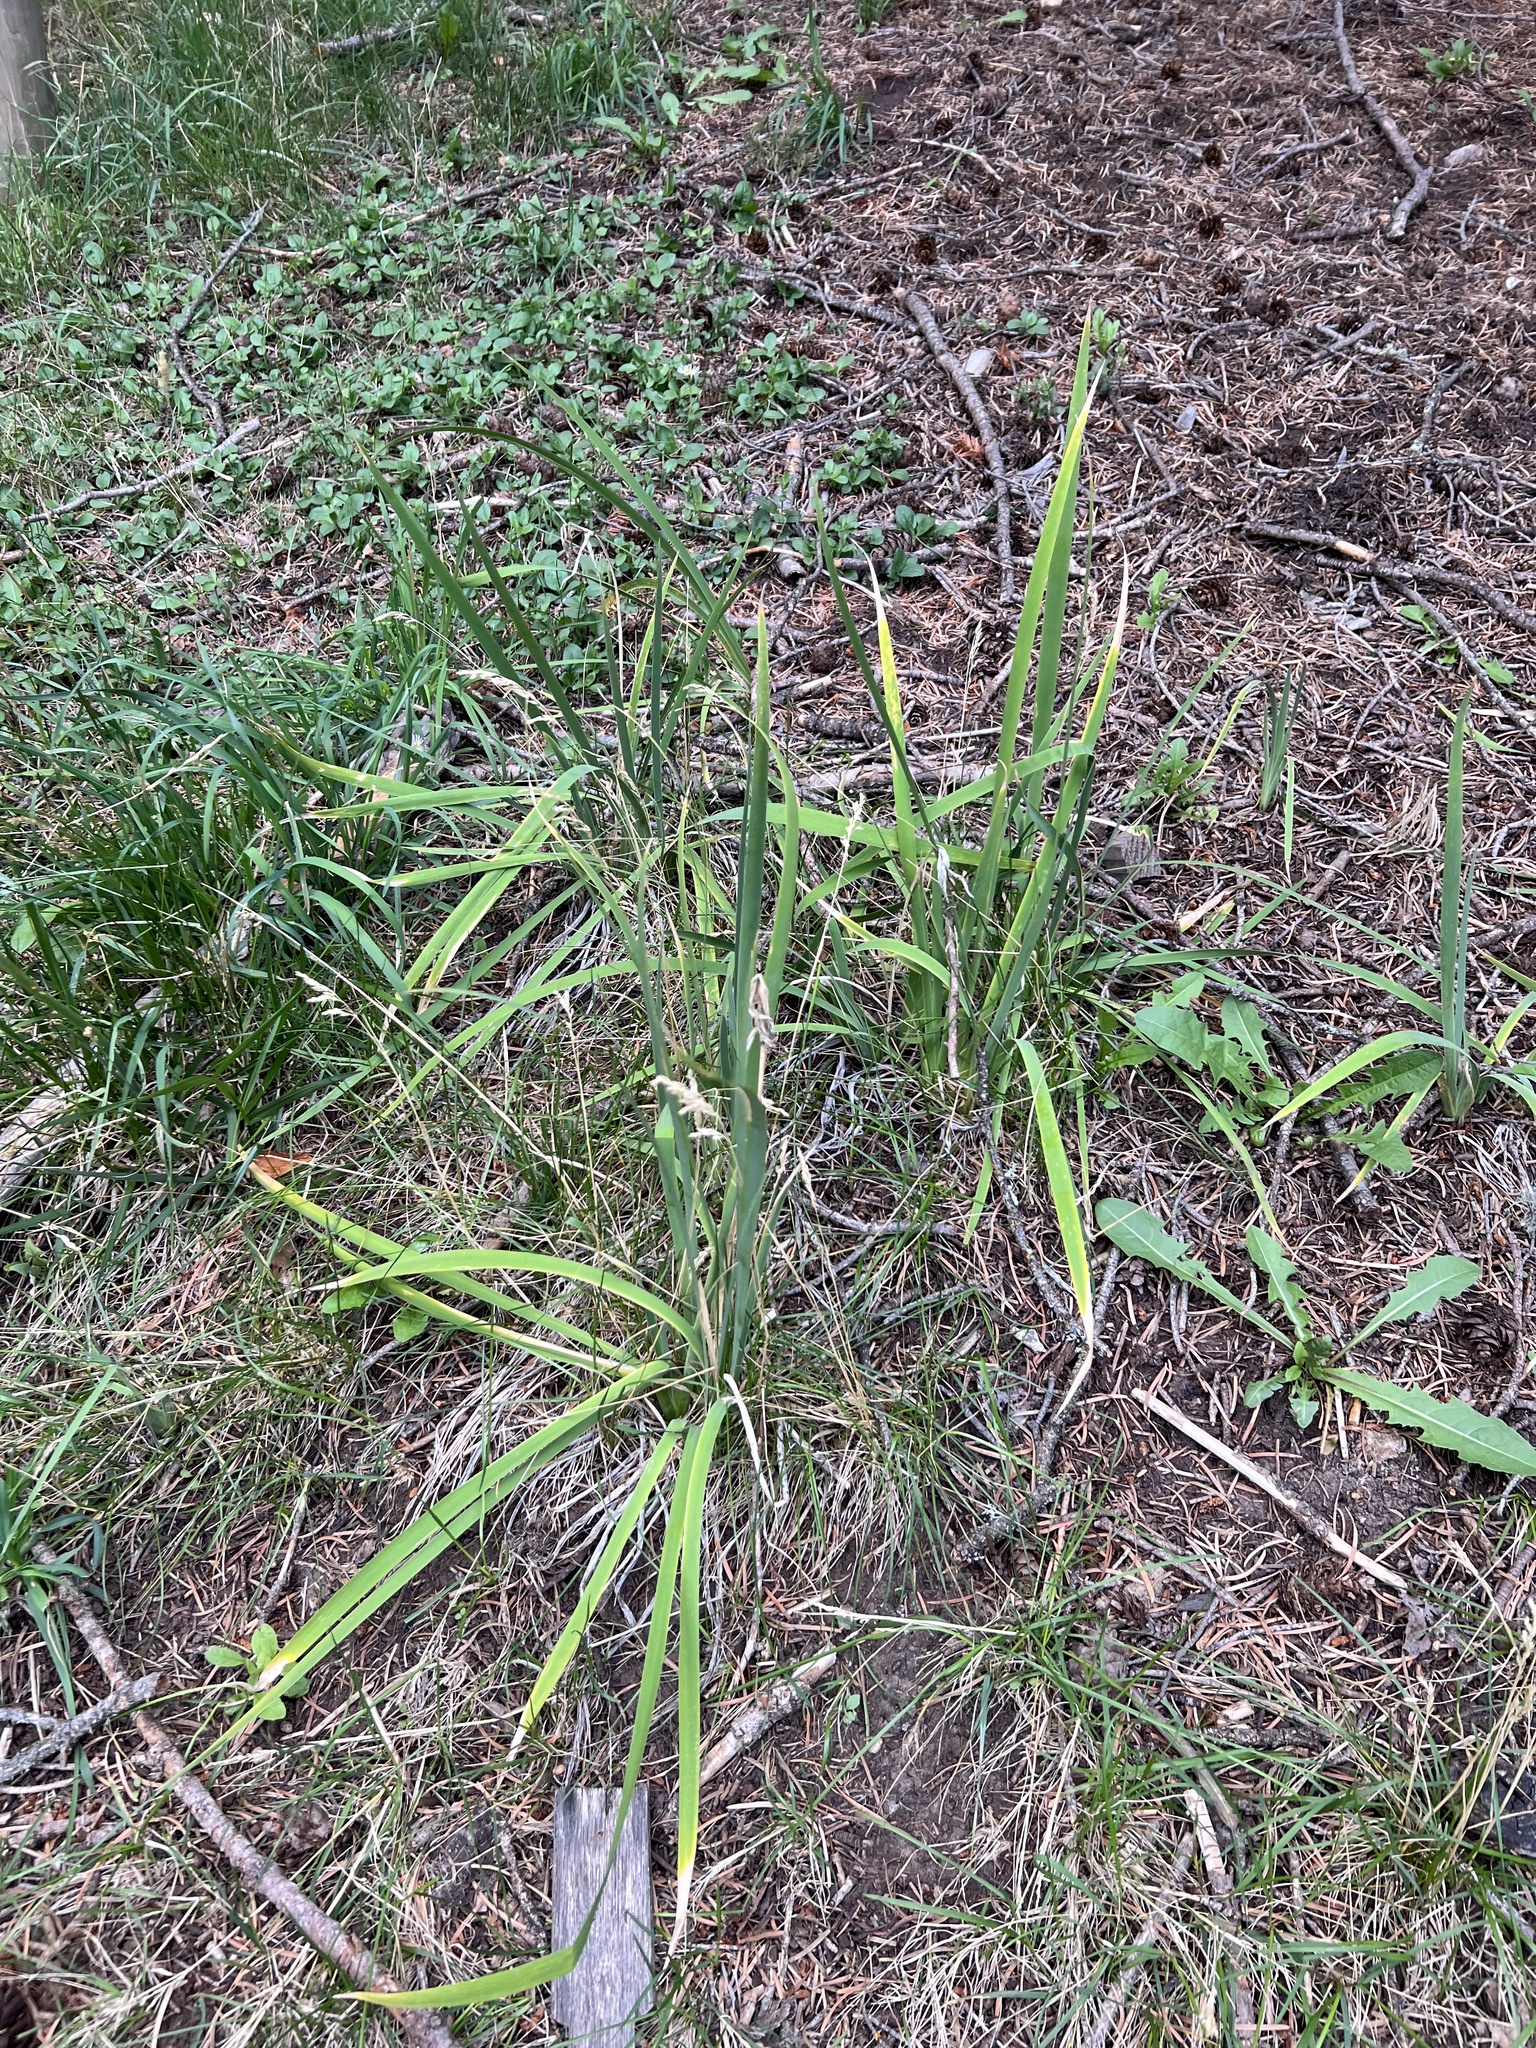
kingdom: Plantae
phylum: Tracheophyta
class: Liliopsida
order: Asparagales
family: Iridaceae
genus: Iris
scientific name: Iris missouriensis
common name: Rocky mountain iris
